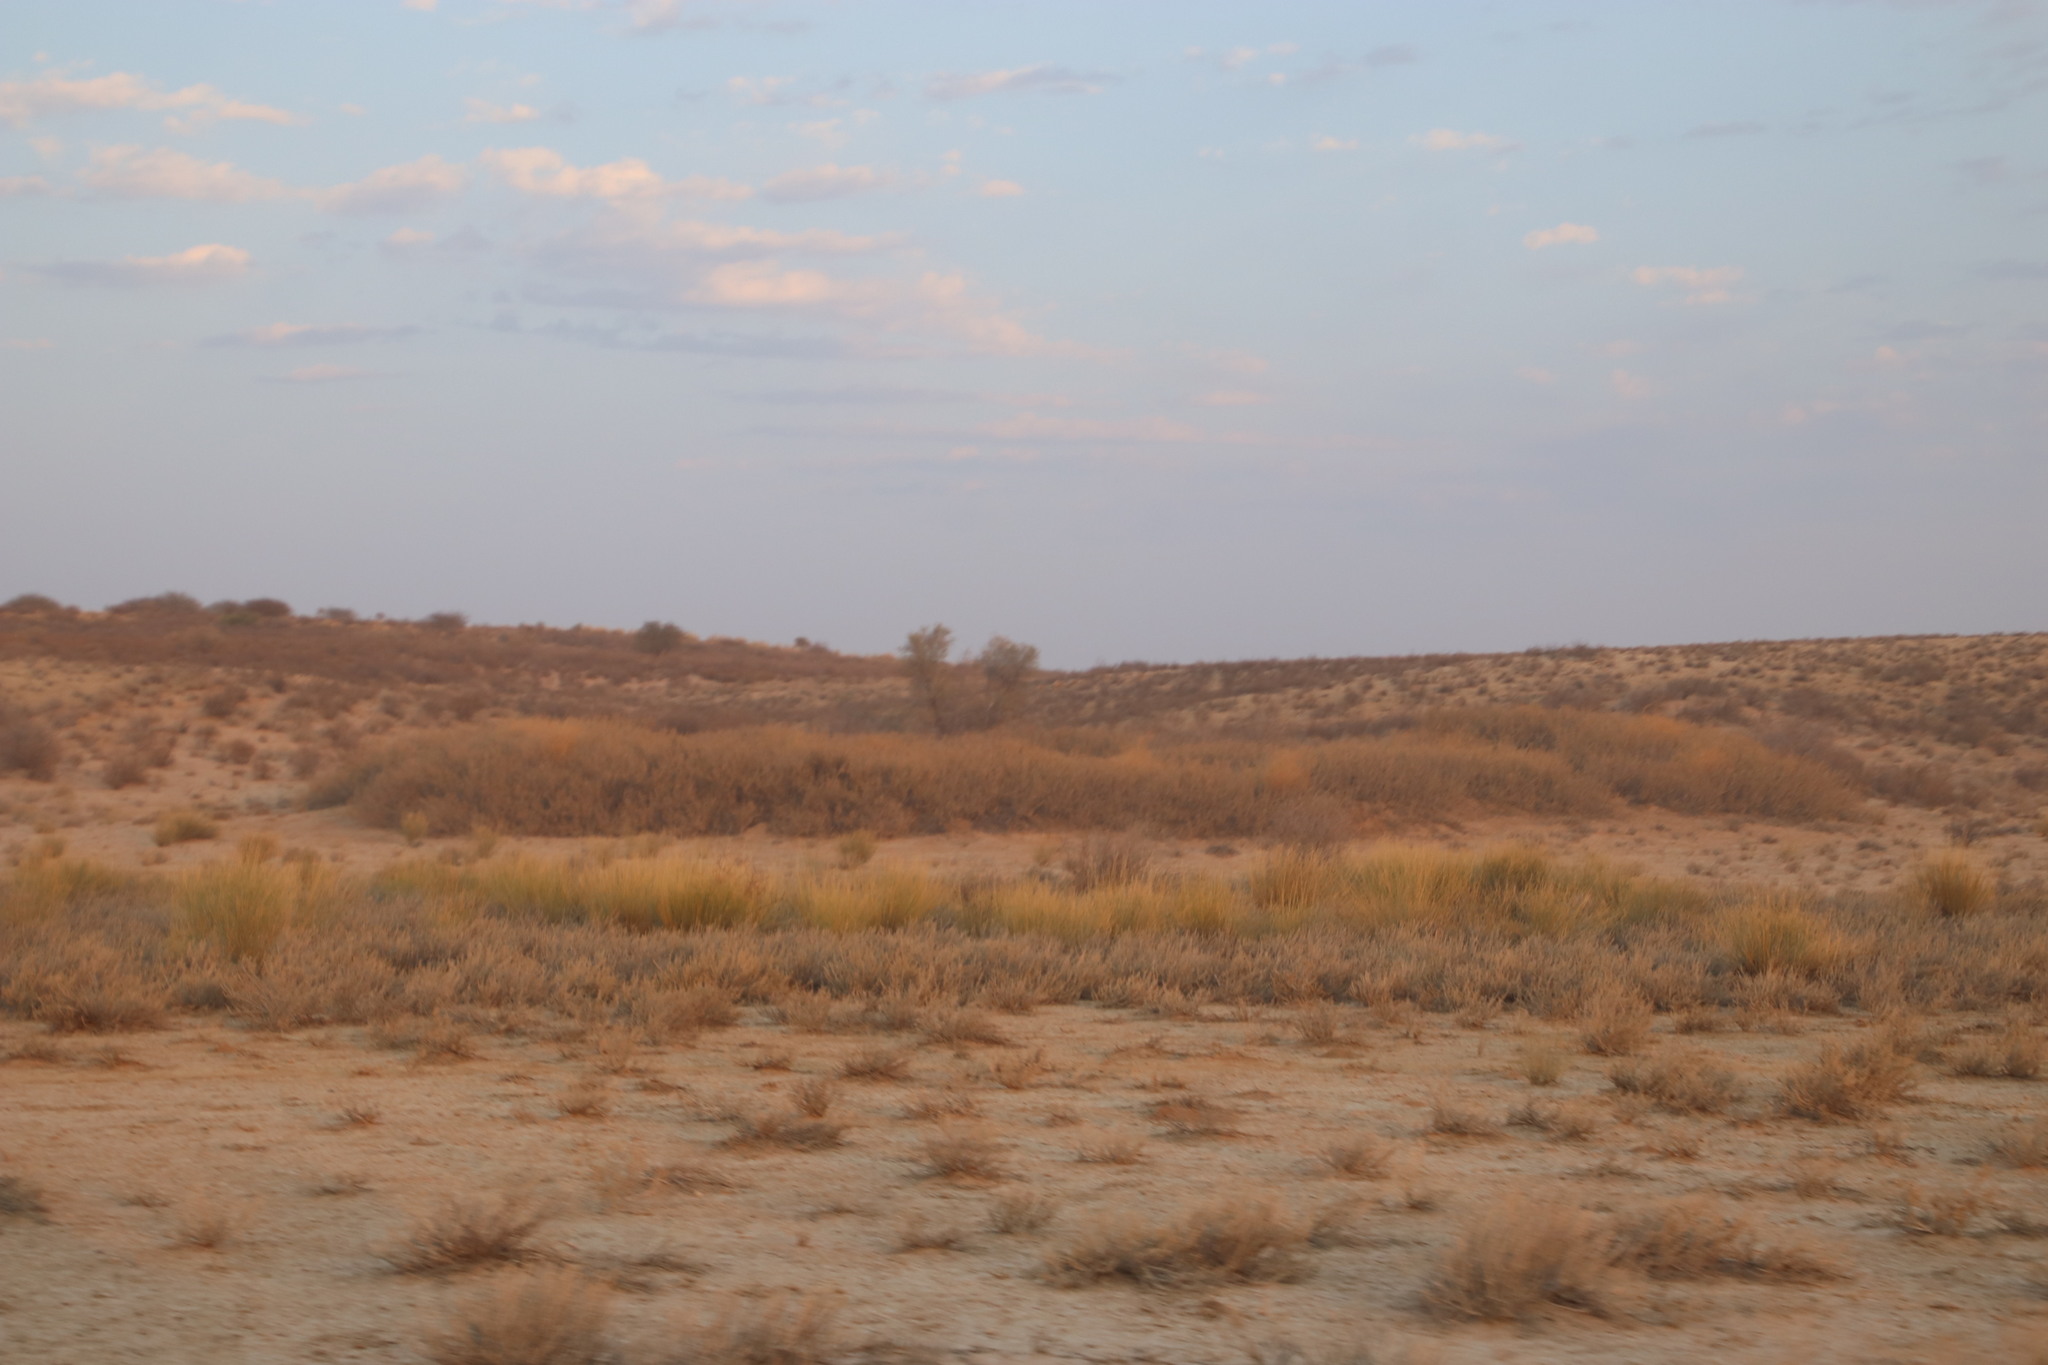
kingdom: Plantae
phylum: Tracheophyta
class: Magnoliopsida
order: Fabales
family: Fabaceae
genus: Vachellia
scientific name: Vachellia hebeclada
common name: Candle thorn
